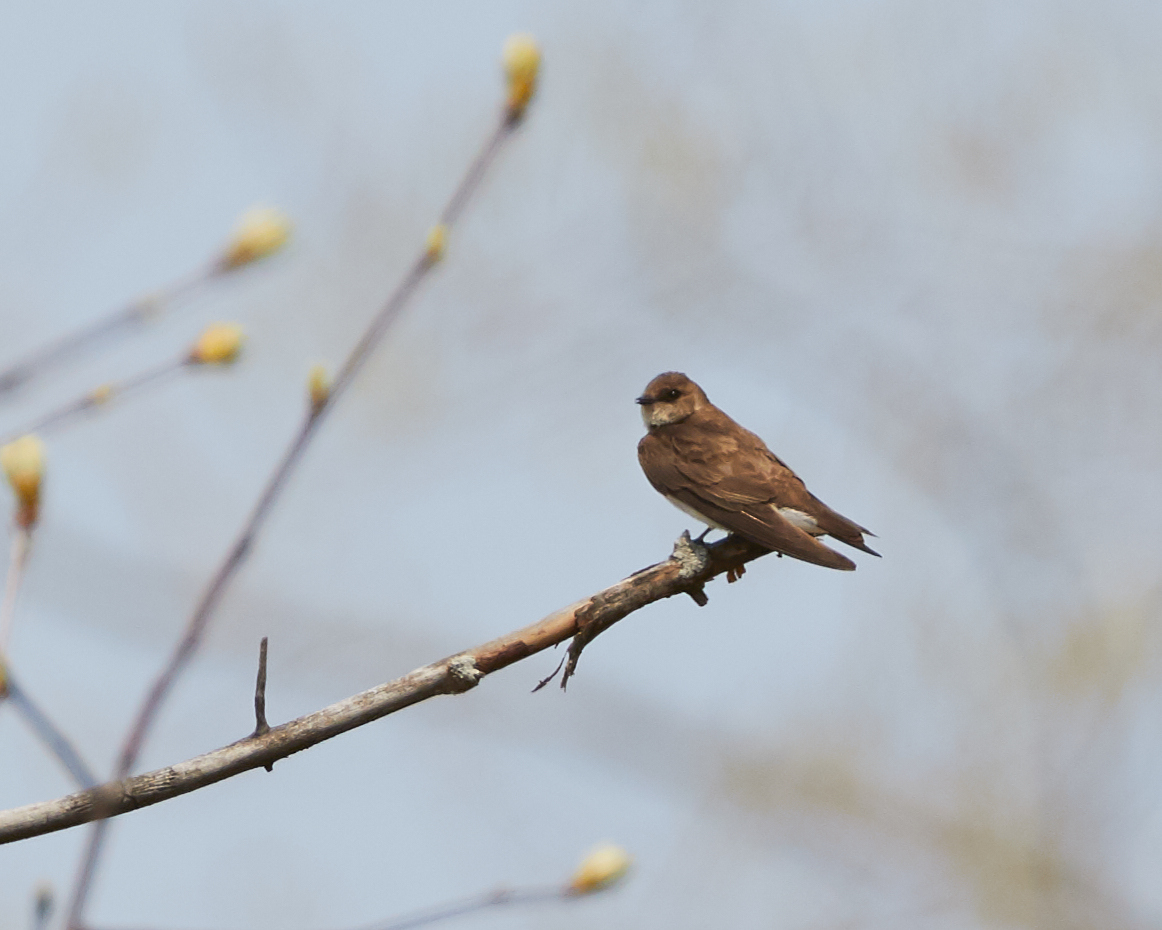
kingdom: Animalia
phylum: Chordata
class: Aves
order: Passeriformes
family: Hirundinidae
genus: Riparia
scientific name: Riparia riparia
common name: Sand martin
